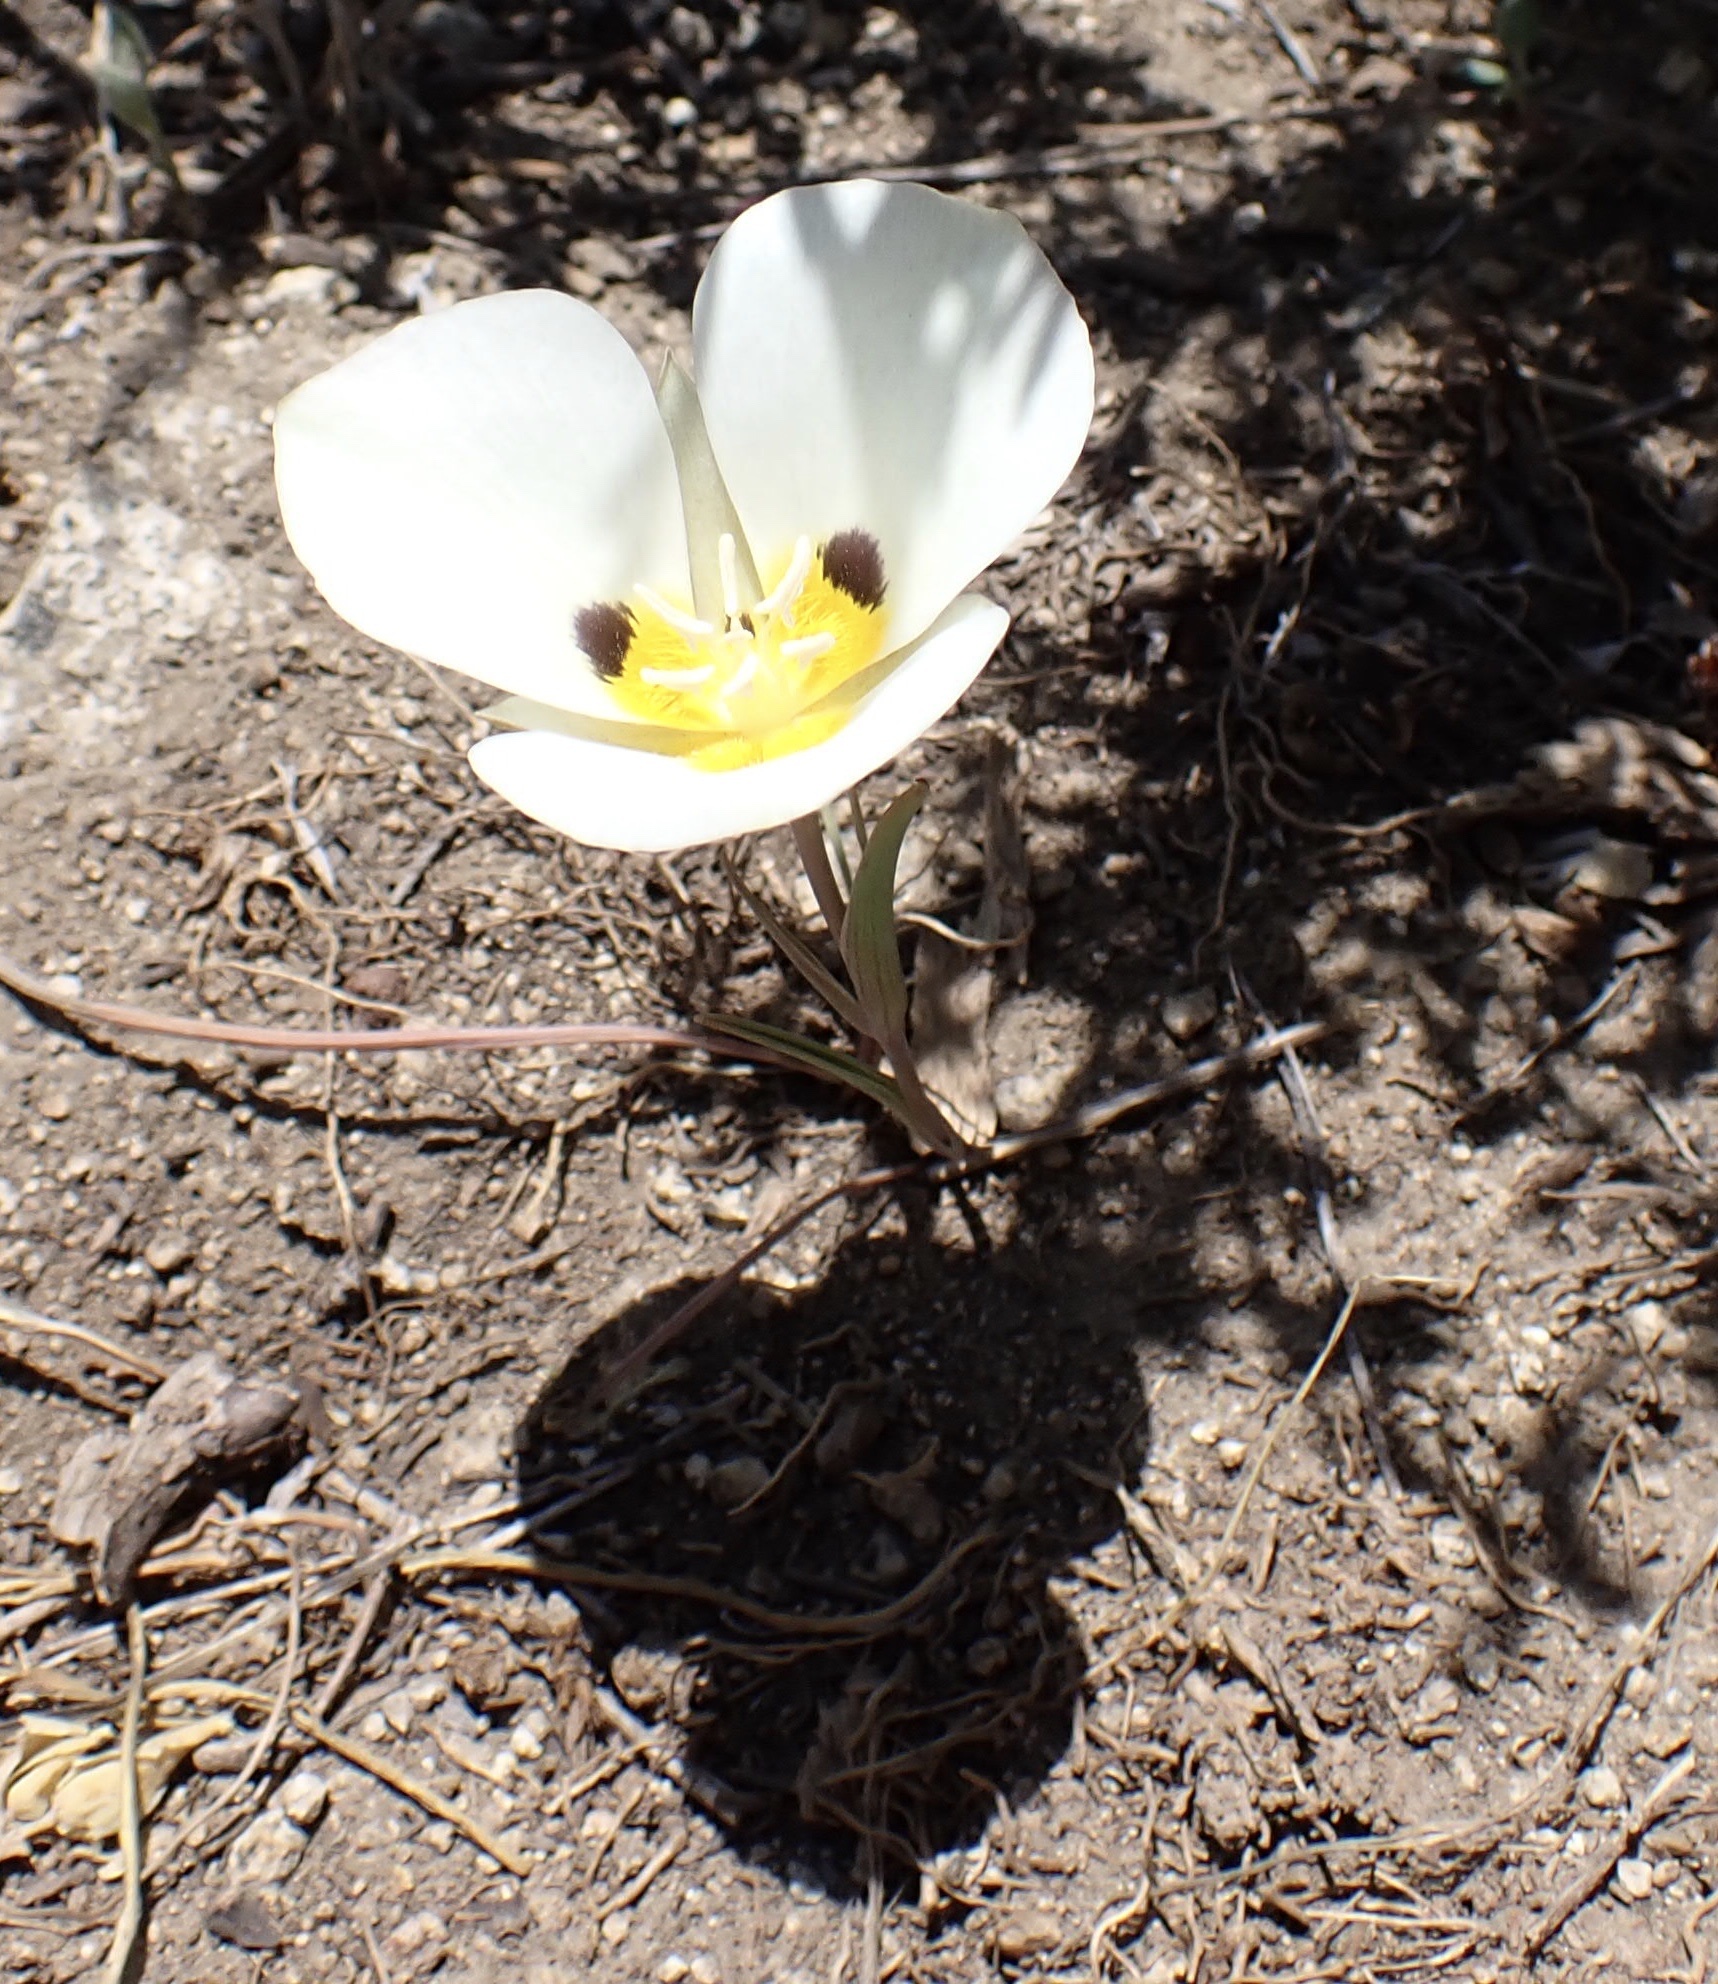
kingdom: Plantae
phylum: Tracheophyta
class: Liliopsida
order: Liliales
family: Liliaceae
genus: Calochortus
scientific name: Calochortus leichtlinii
